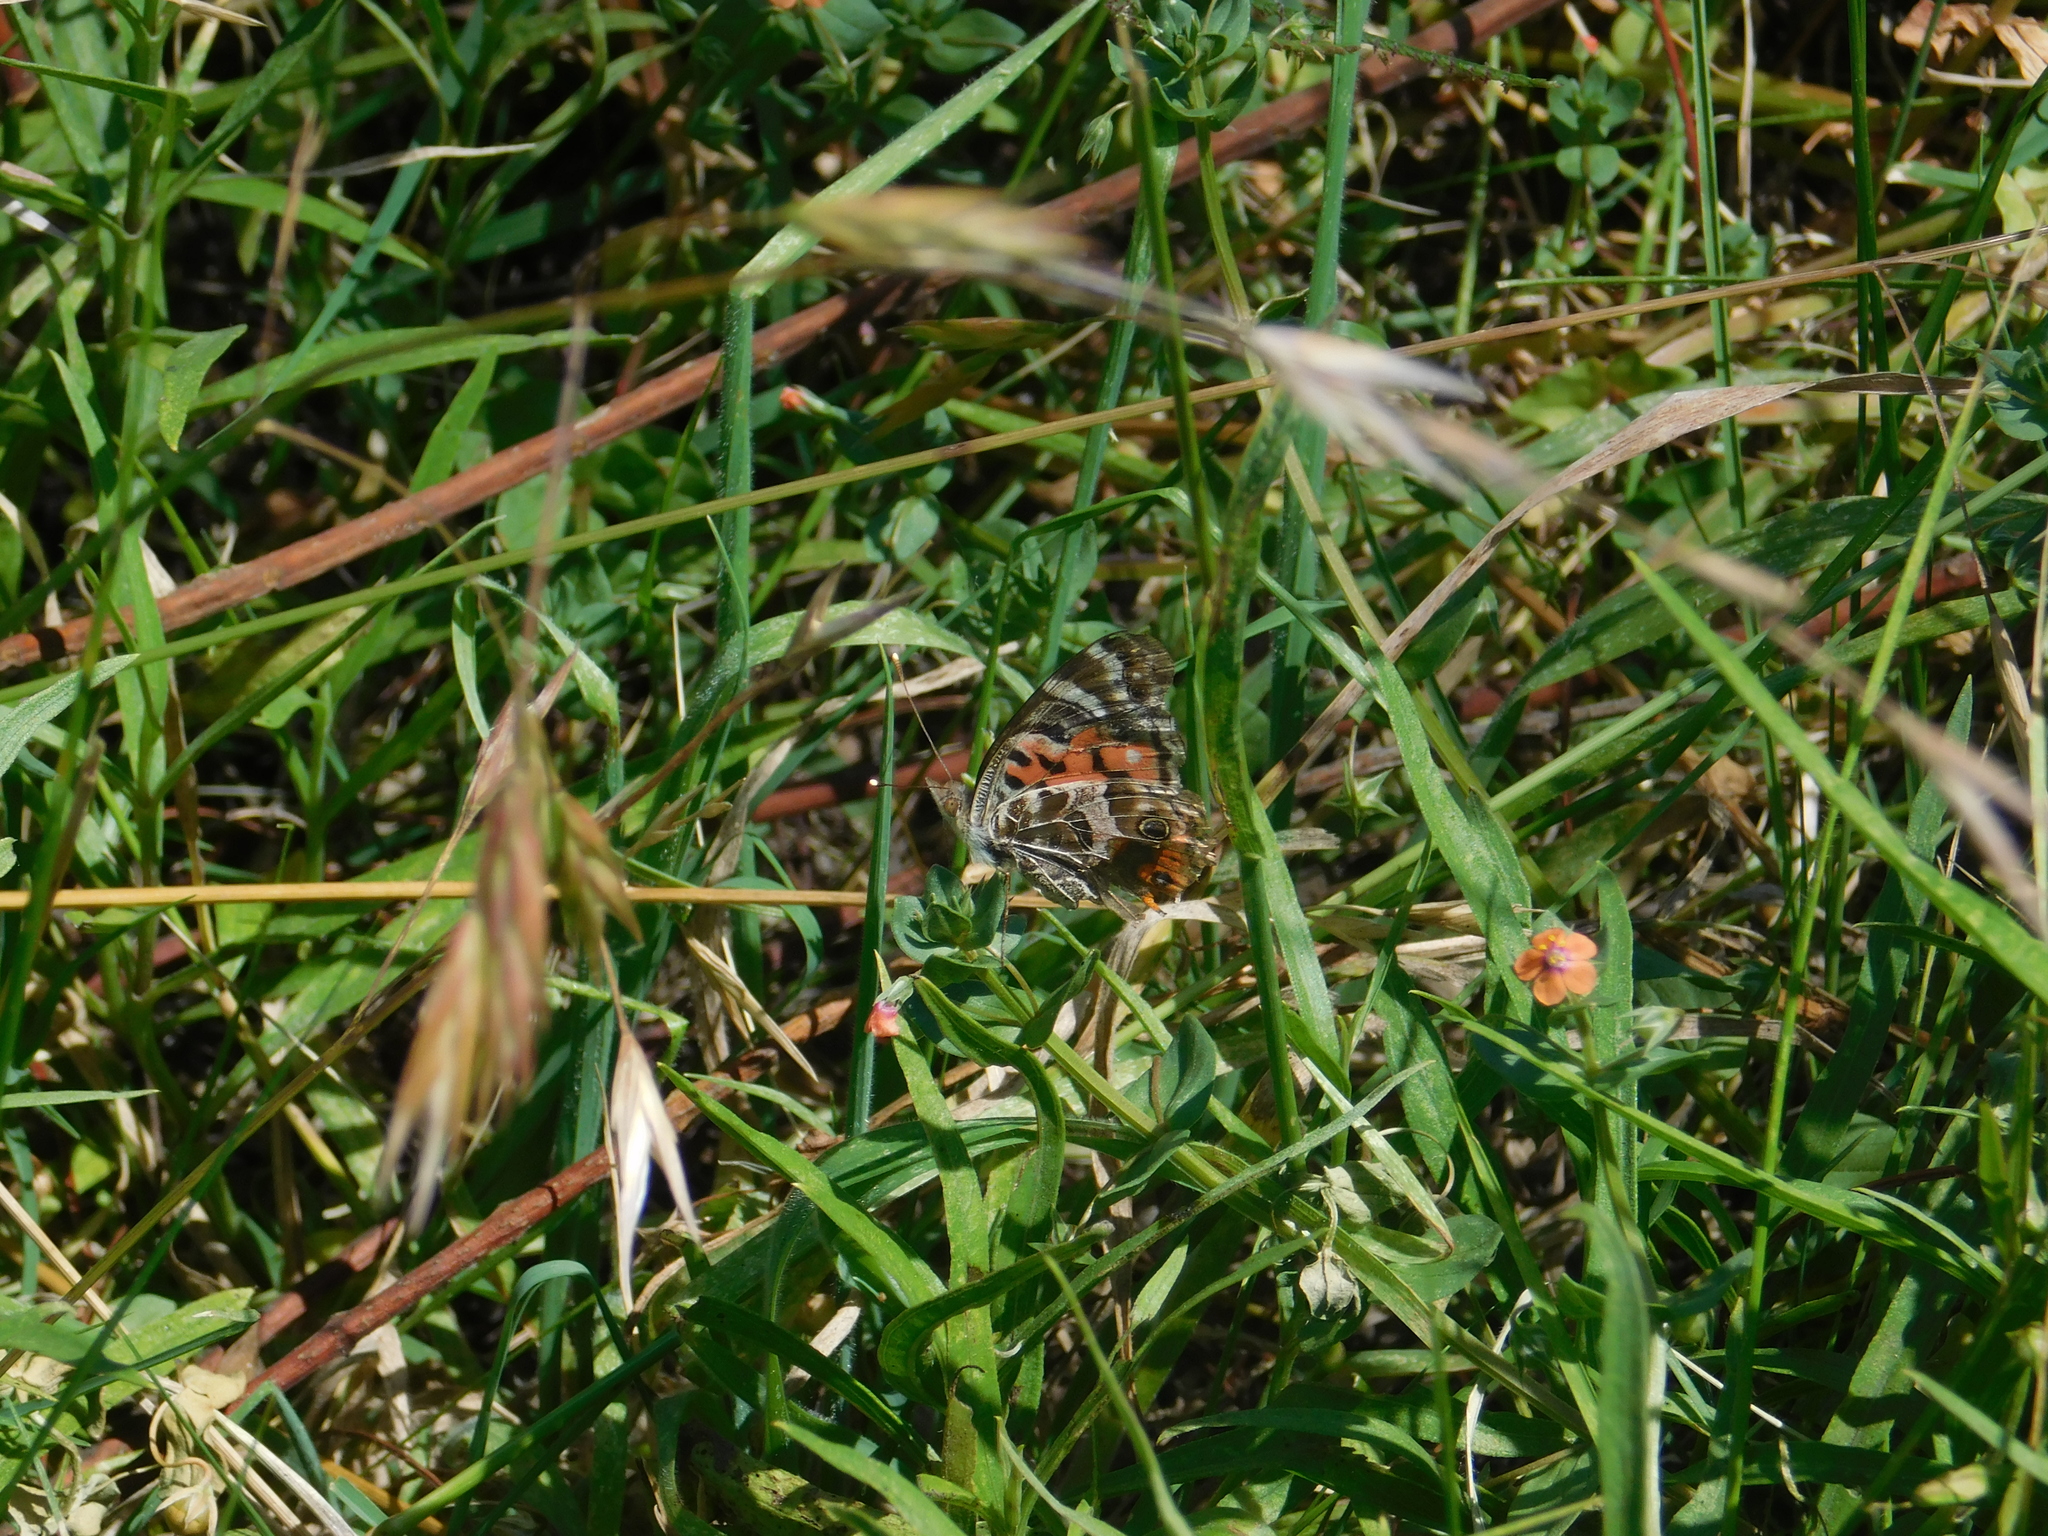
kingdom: Animalia
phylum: Arthropoda
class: Insecta
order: Lepidoptera
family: Nymphalidae
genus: Vanessa
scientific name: Vanessa braziliensis
